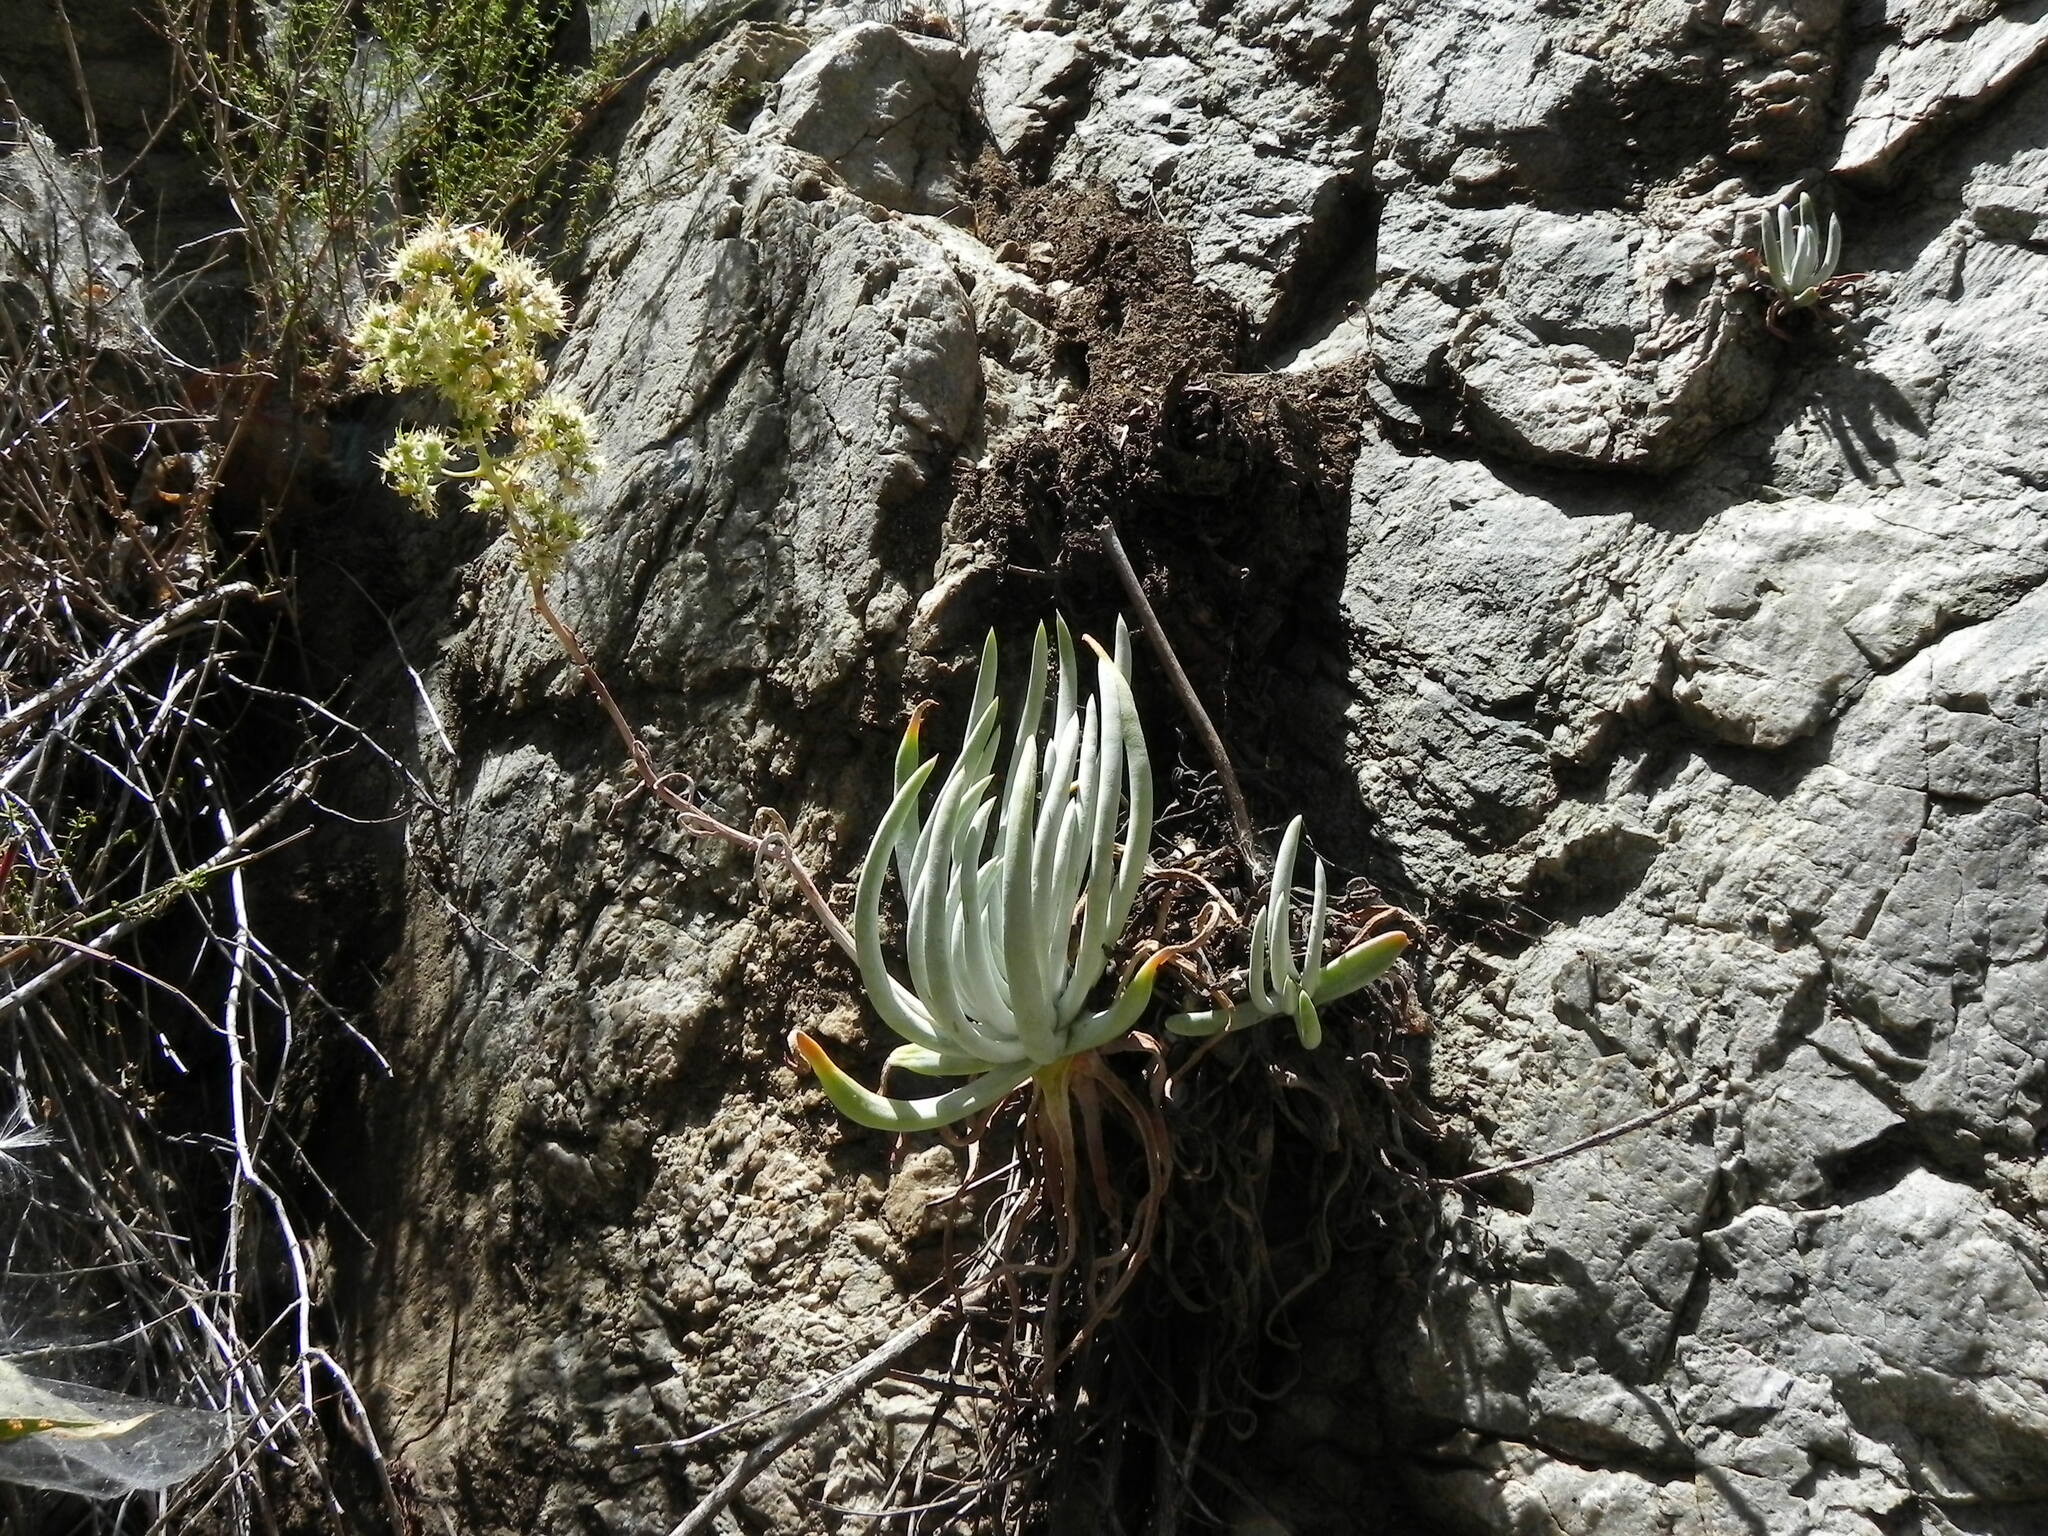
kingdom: Plantae
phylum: Tracheophyta
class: Magnoliopsida
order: Saxifragales
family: Crassulaceae
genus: Dudleya
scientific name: Dudleya densiflora
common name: San gabriel mountains dudleya
